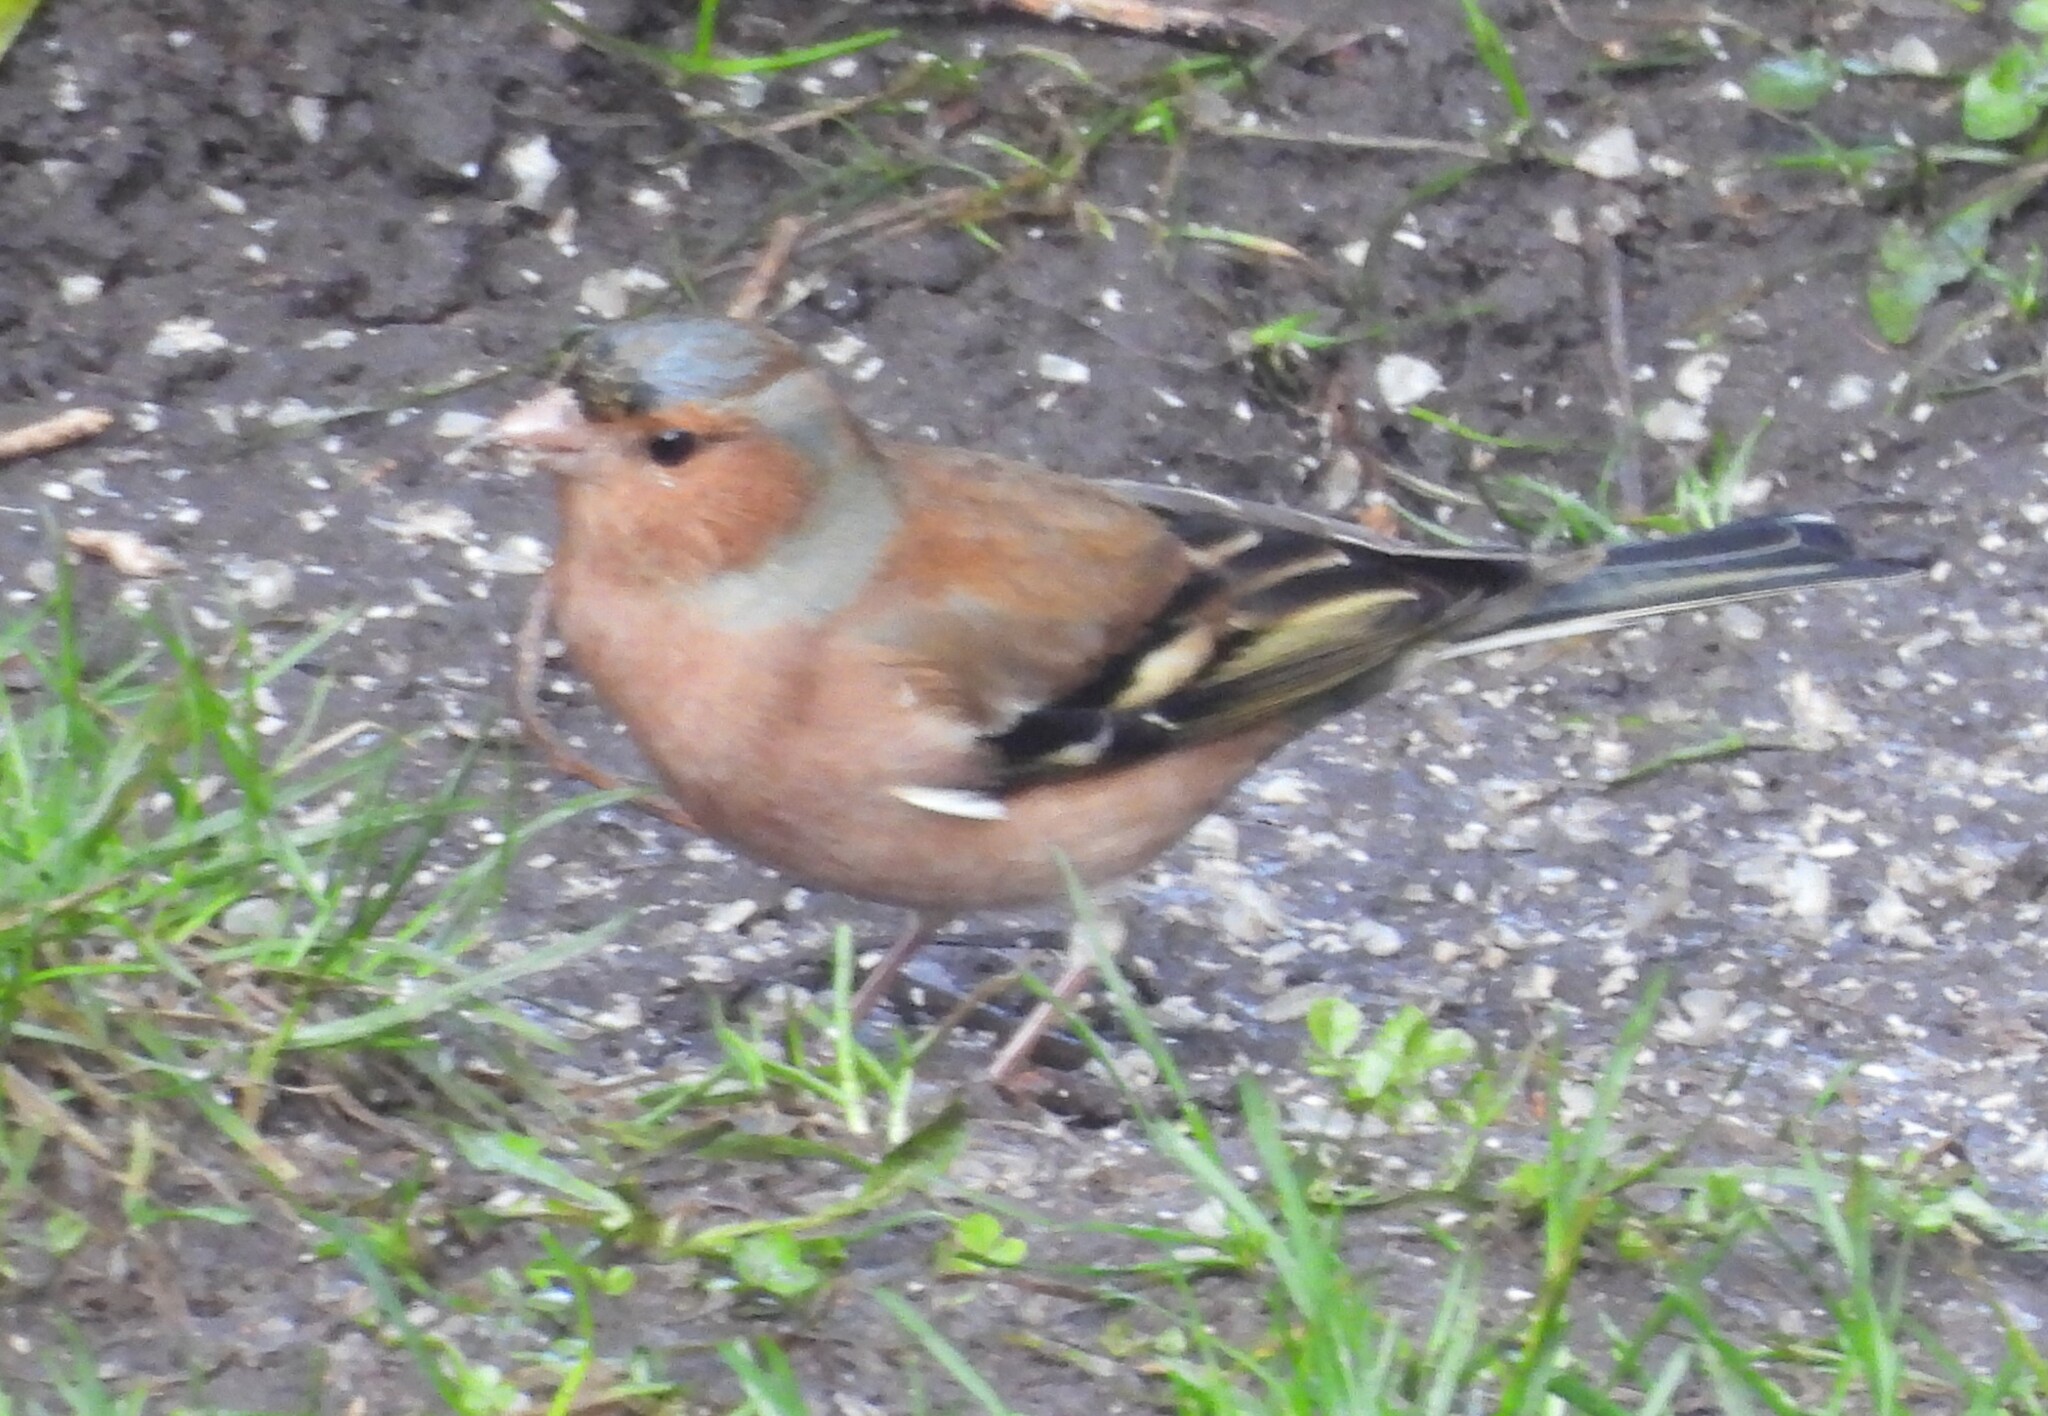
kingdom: Animalia
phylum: Chordata
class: Aves
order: Passeriformes
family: Fringillidae
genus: Fringilla
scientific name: Fringilla coelebs
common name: Common chaffinch
